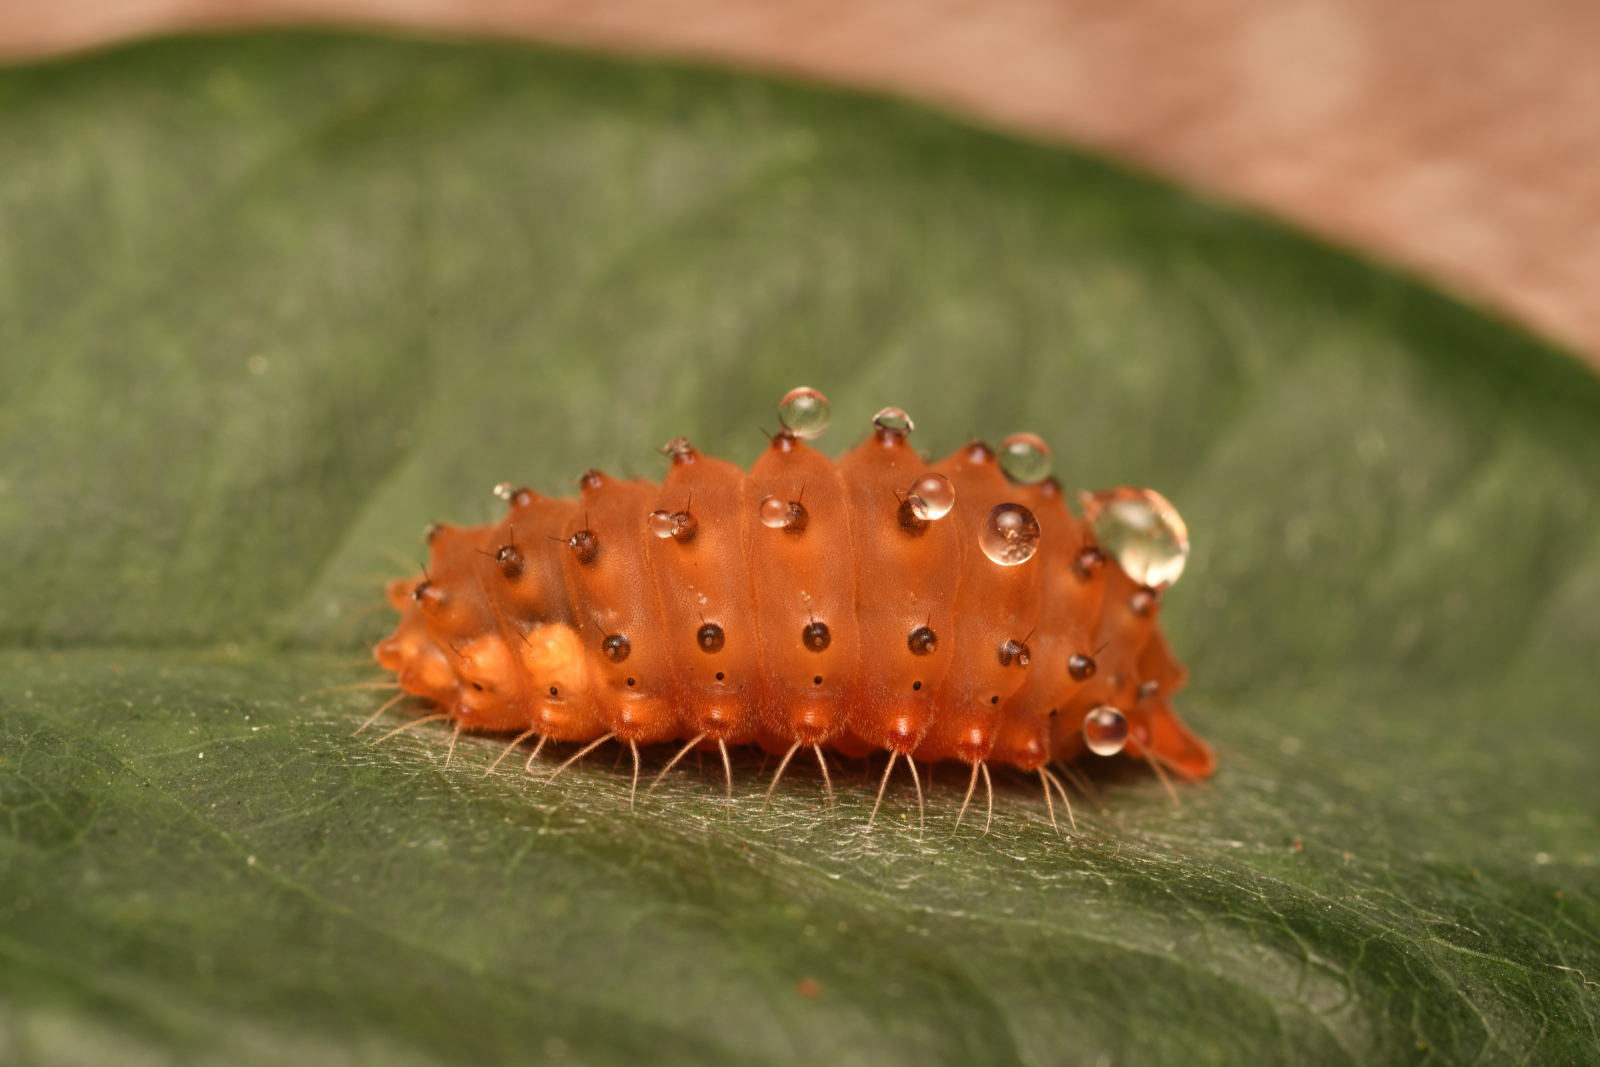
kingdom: Animalia
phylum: Arthropoda
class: Insecta
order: Lepidoptera
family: Zygaenidae
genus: Trypanophora
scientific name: Trypanophora semihyalina
